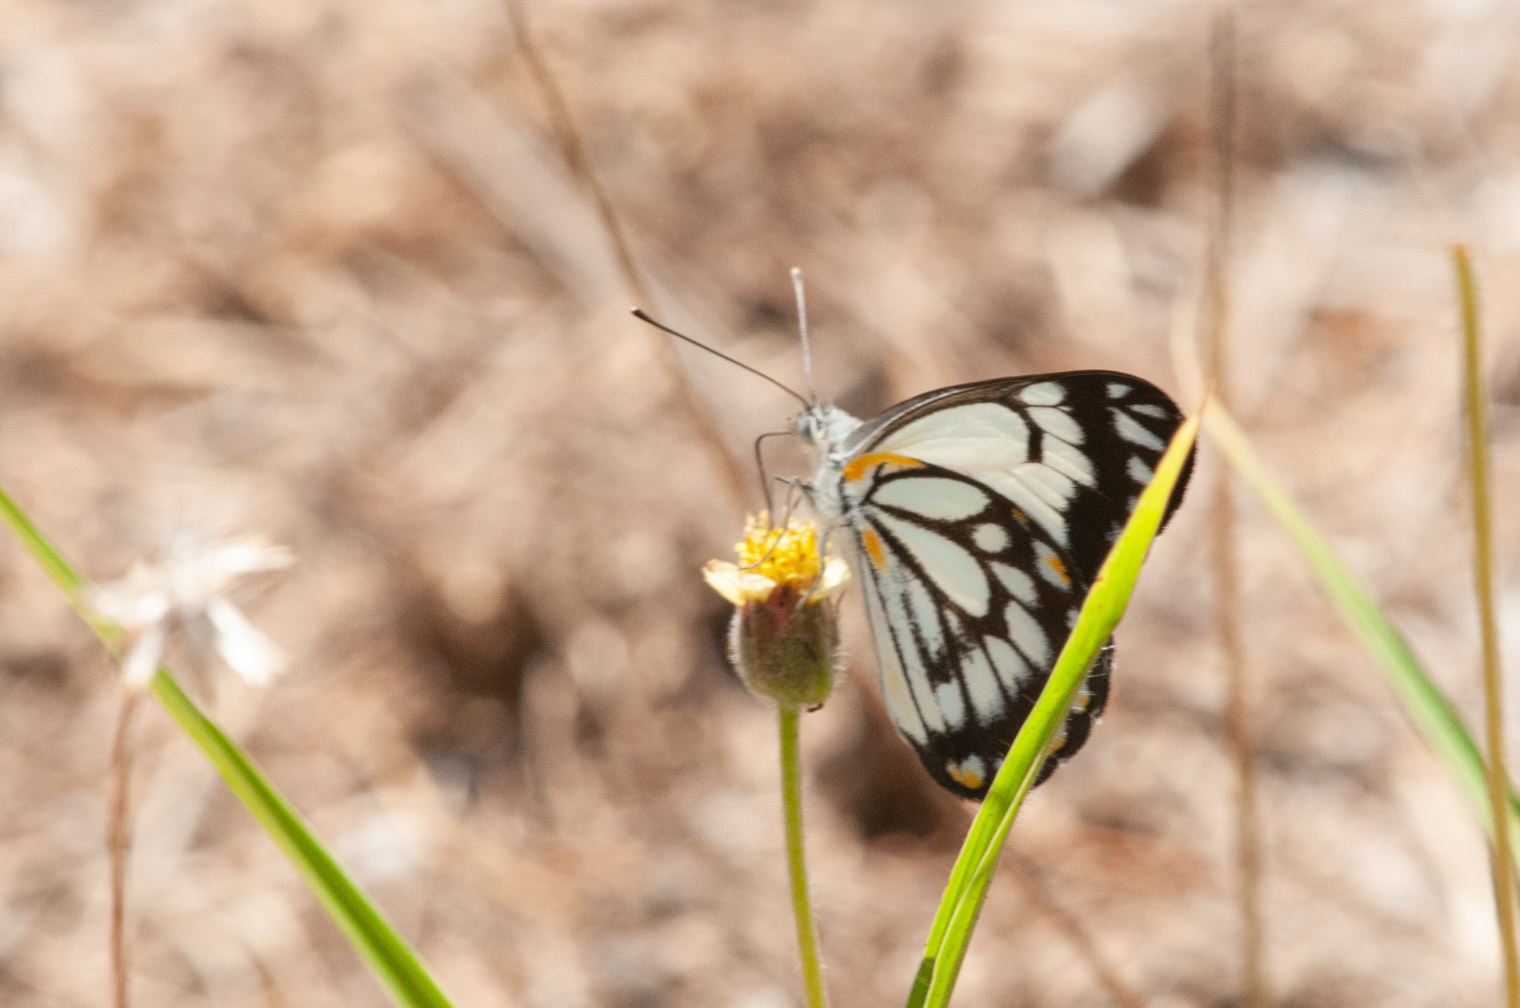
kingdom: Animalia
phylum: Arthropoda
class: Insecta
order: Lepidoptera
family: Pieridae
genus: Belenois
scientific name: Belenois java
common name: Caper white
